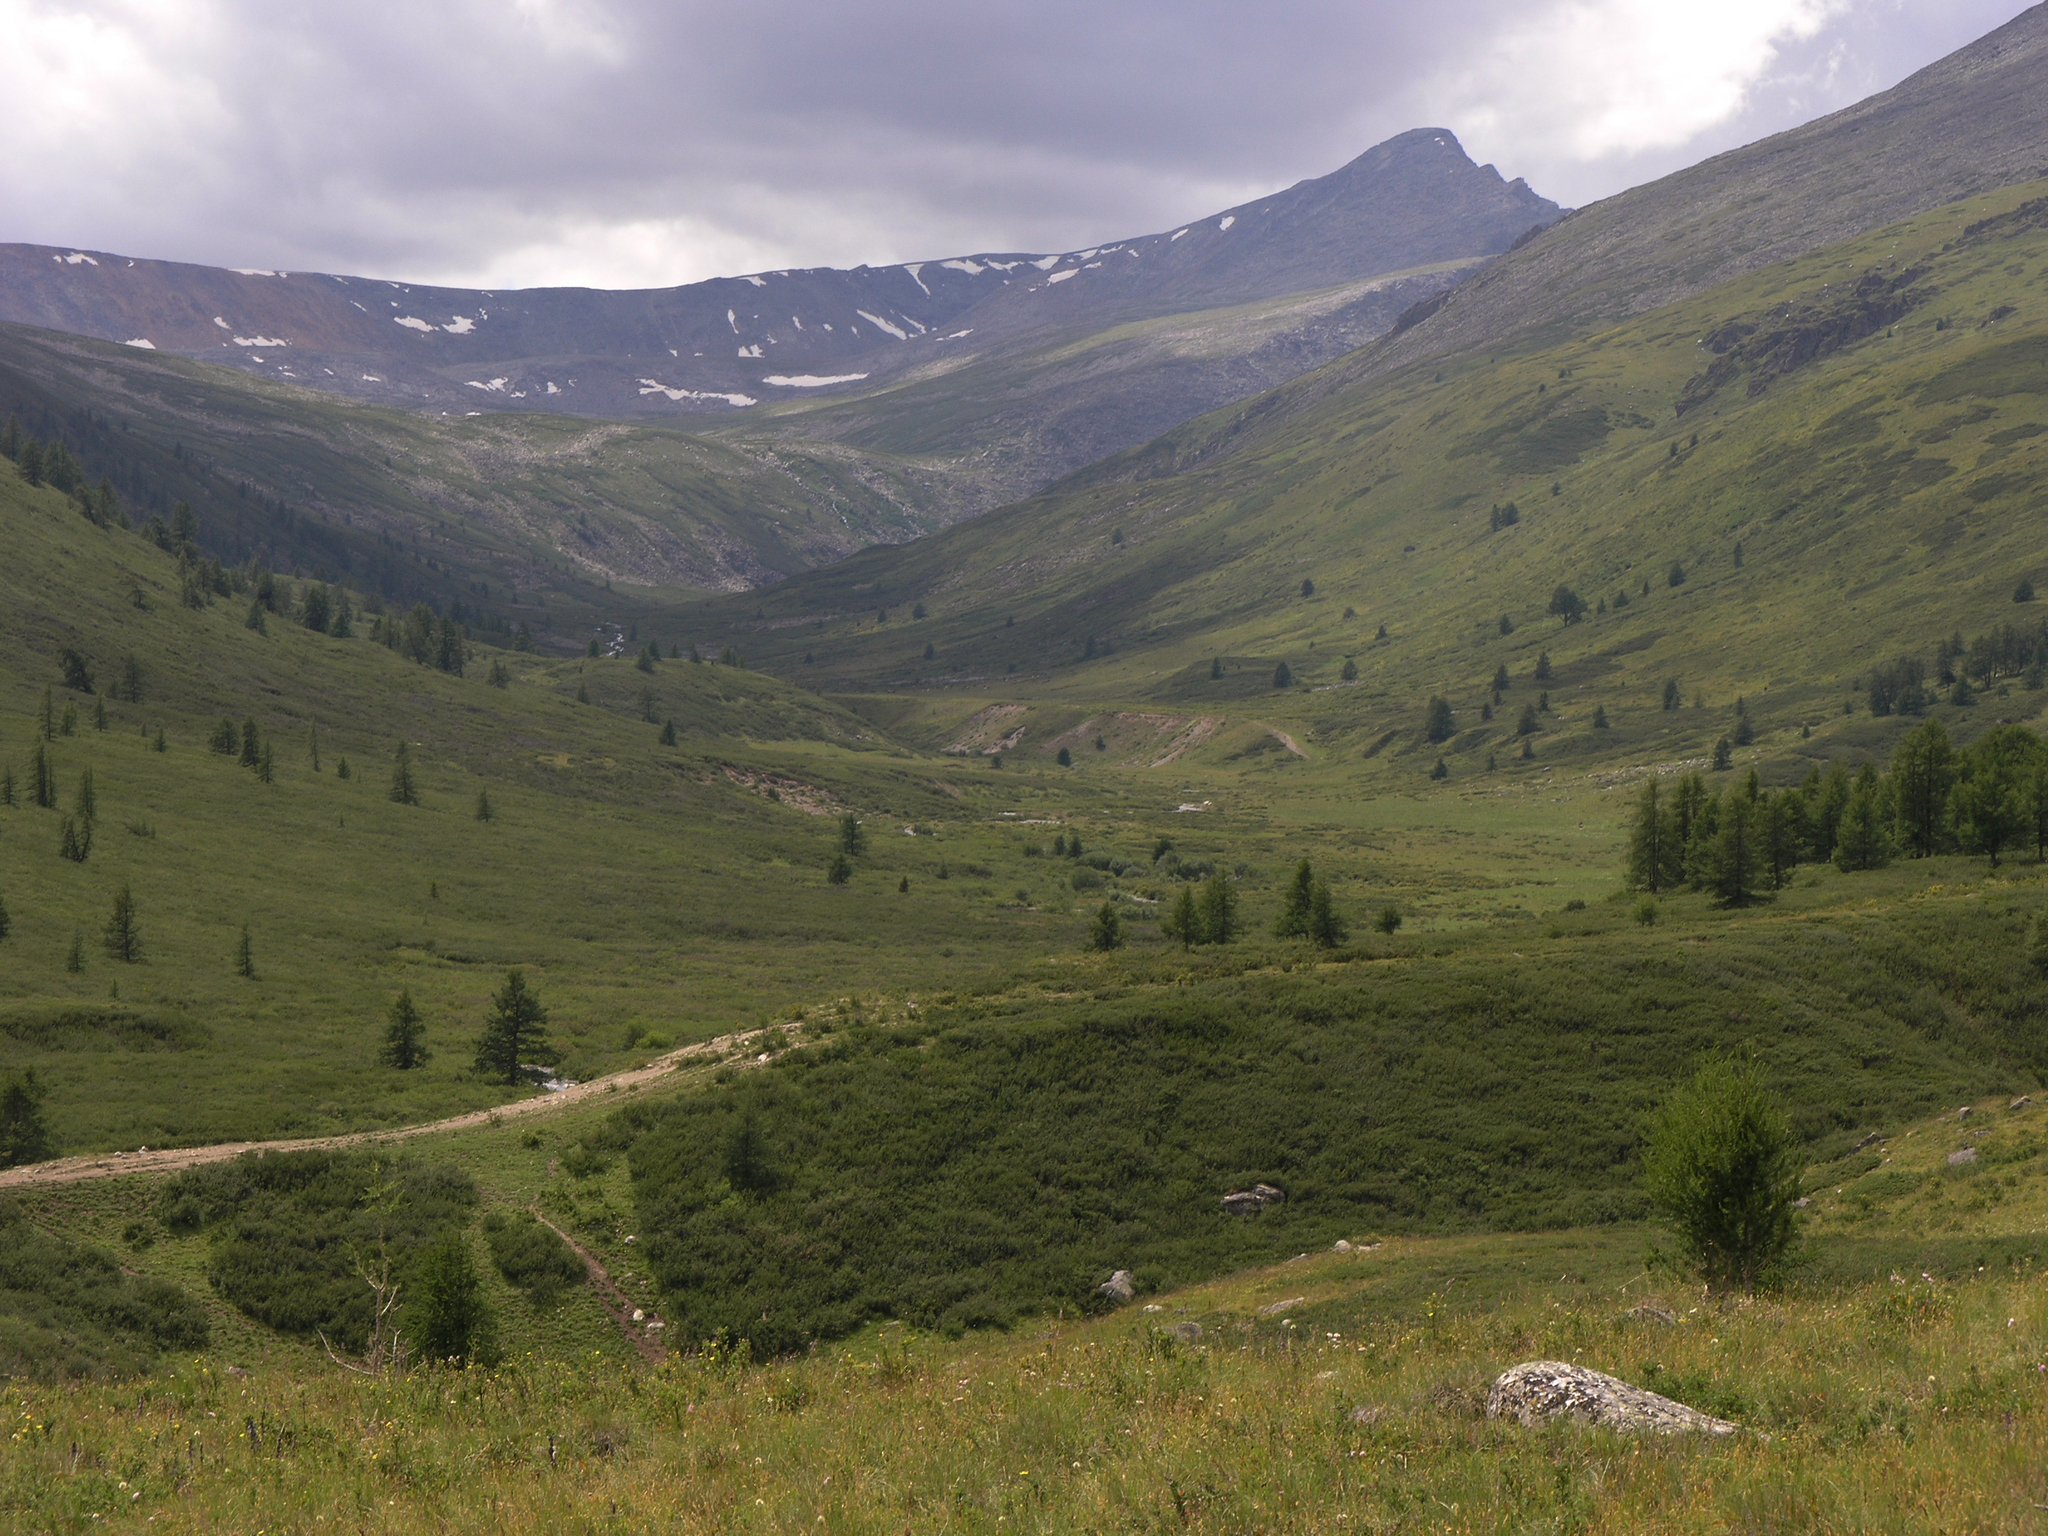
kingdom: Plantae
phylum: Tracheophyta
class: Pinopsida
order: Pinales
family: Pinaceae
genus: Larix
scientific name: Larix sibirica
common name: Siberian larch
